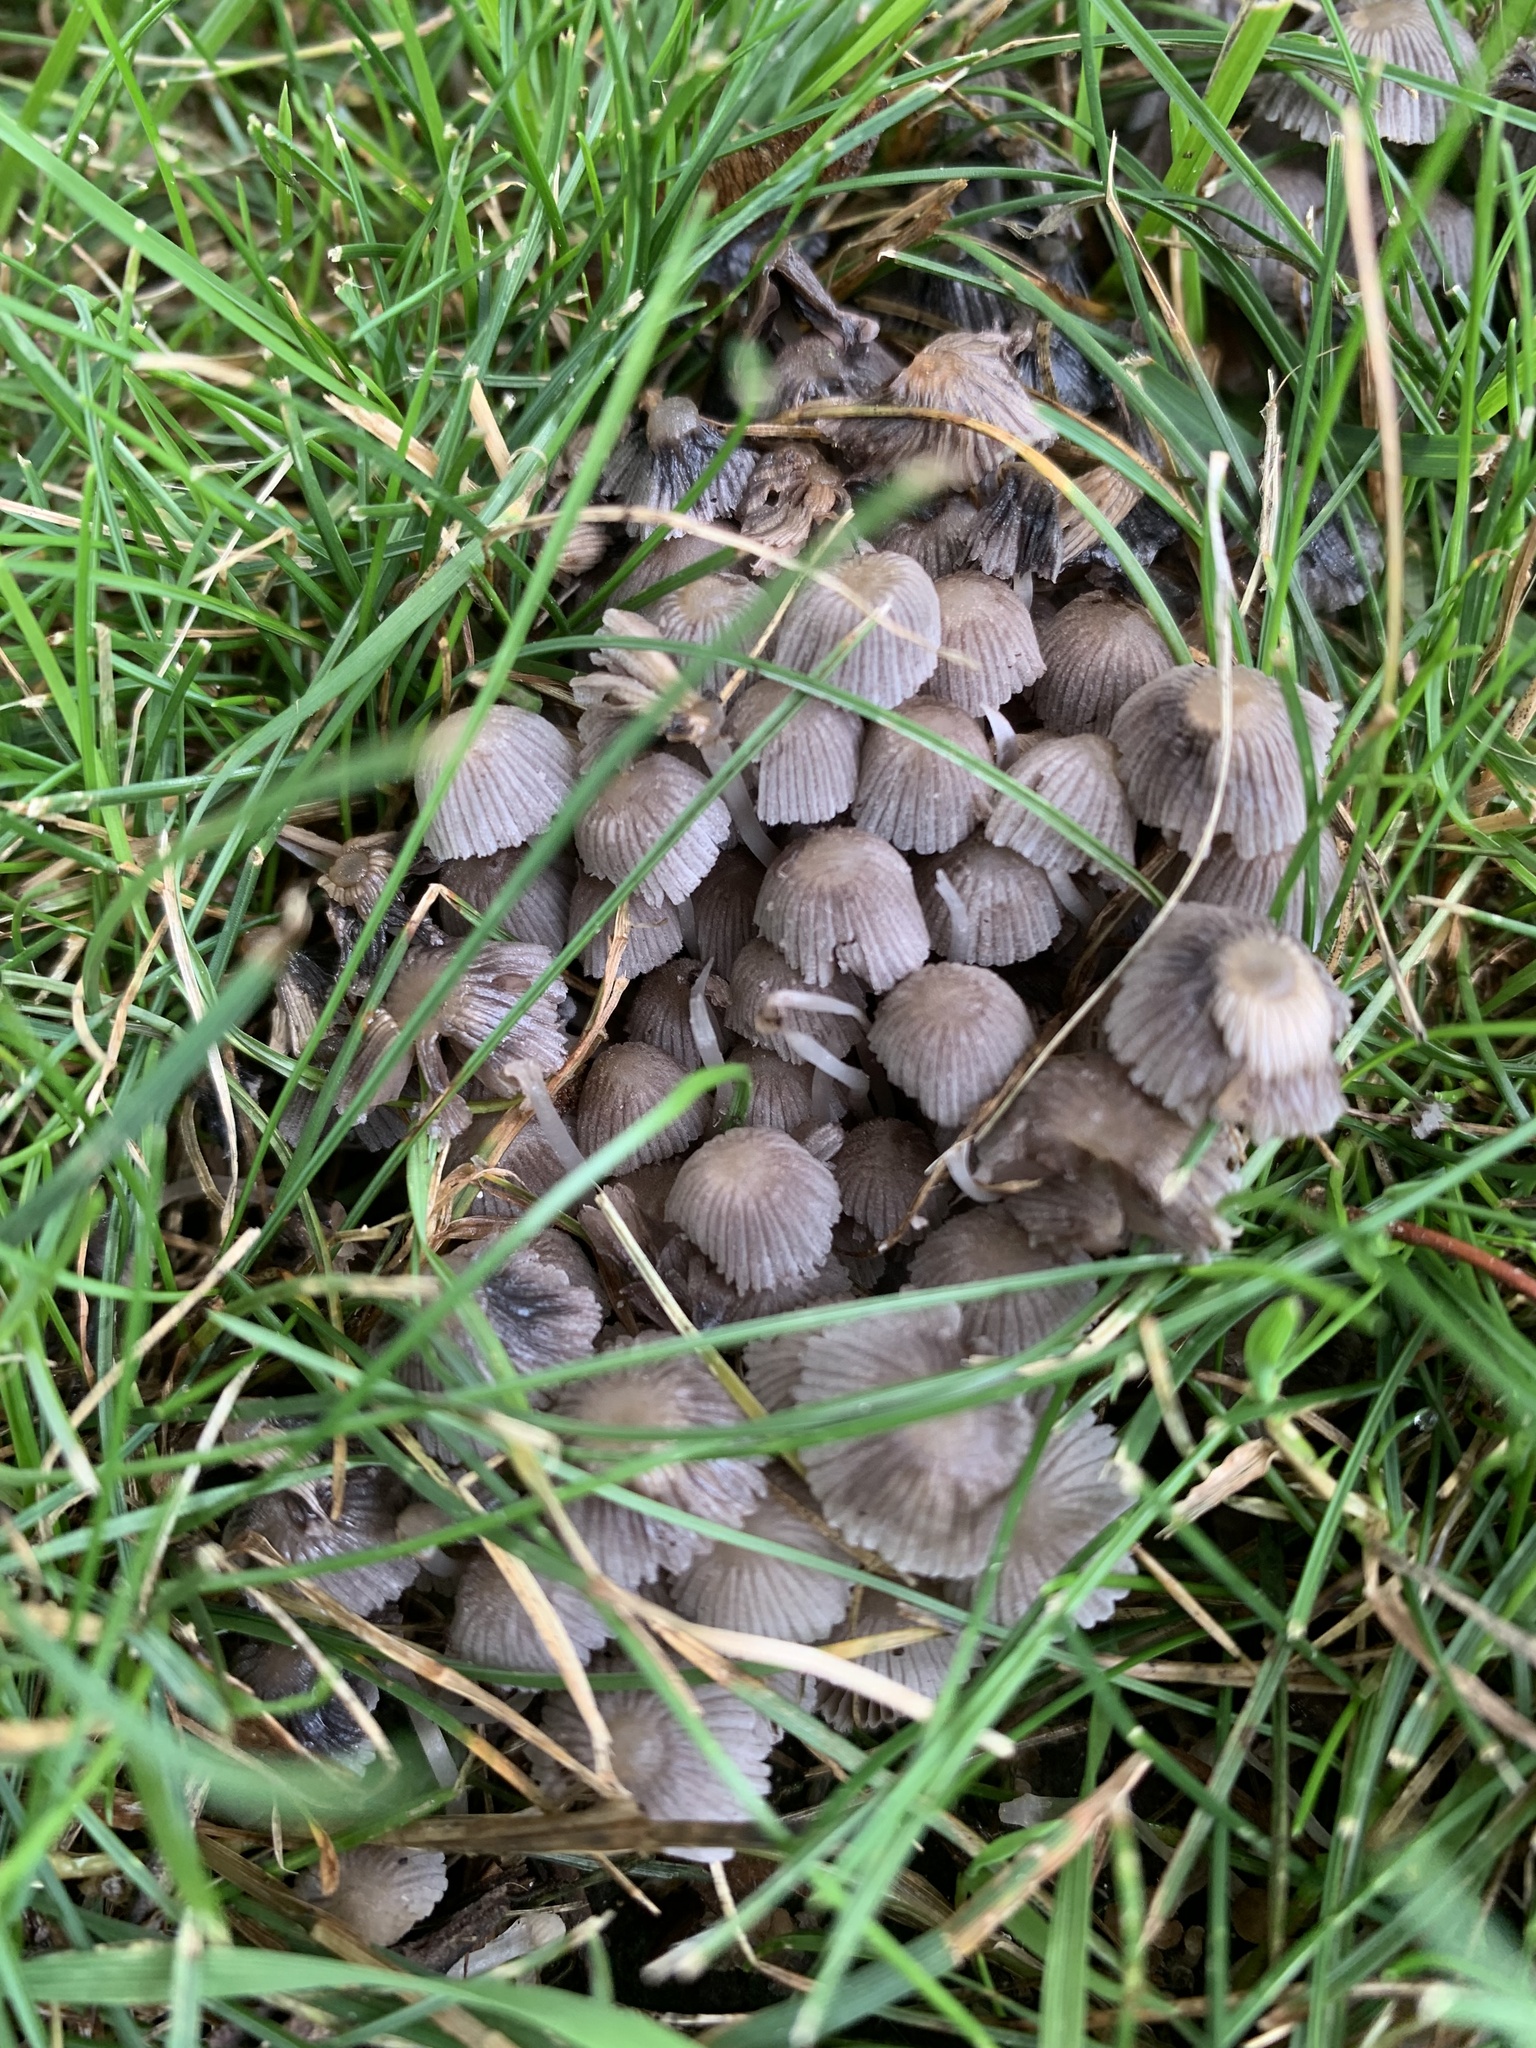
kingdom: Fungi
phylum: Basidiomycota
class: Agaricomycetes
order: Agaricales
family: Psathyrellaceae
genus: Coprinellus
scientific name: Coprinellus disseminatus
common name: Fairies' bonnets
